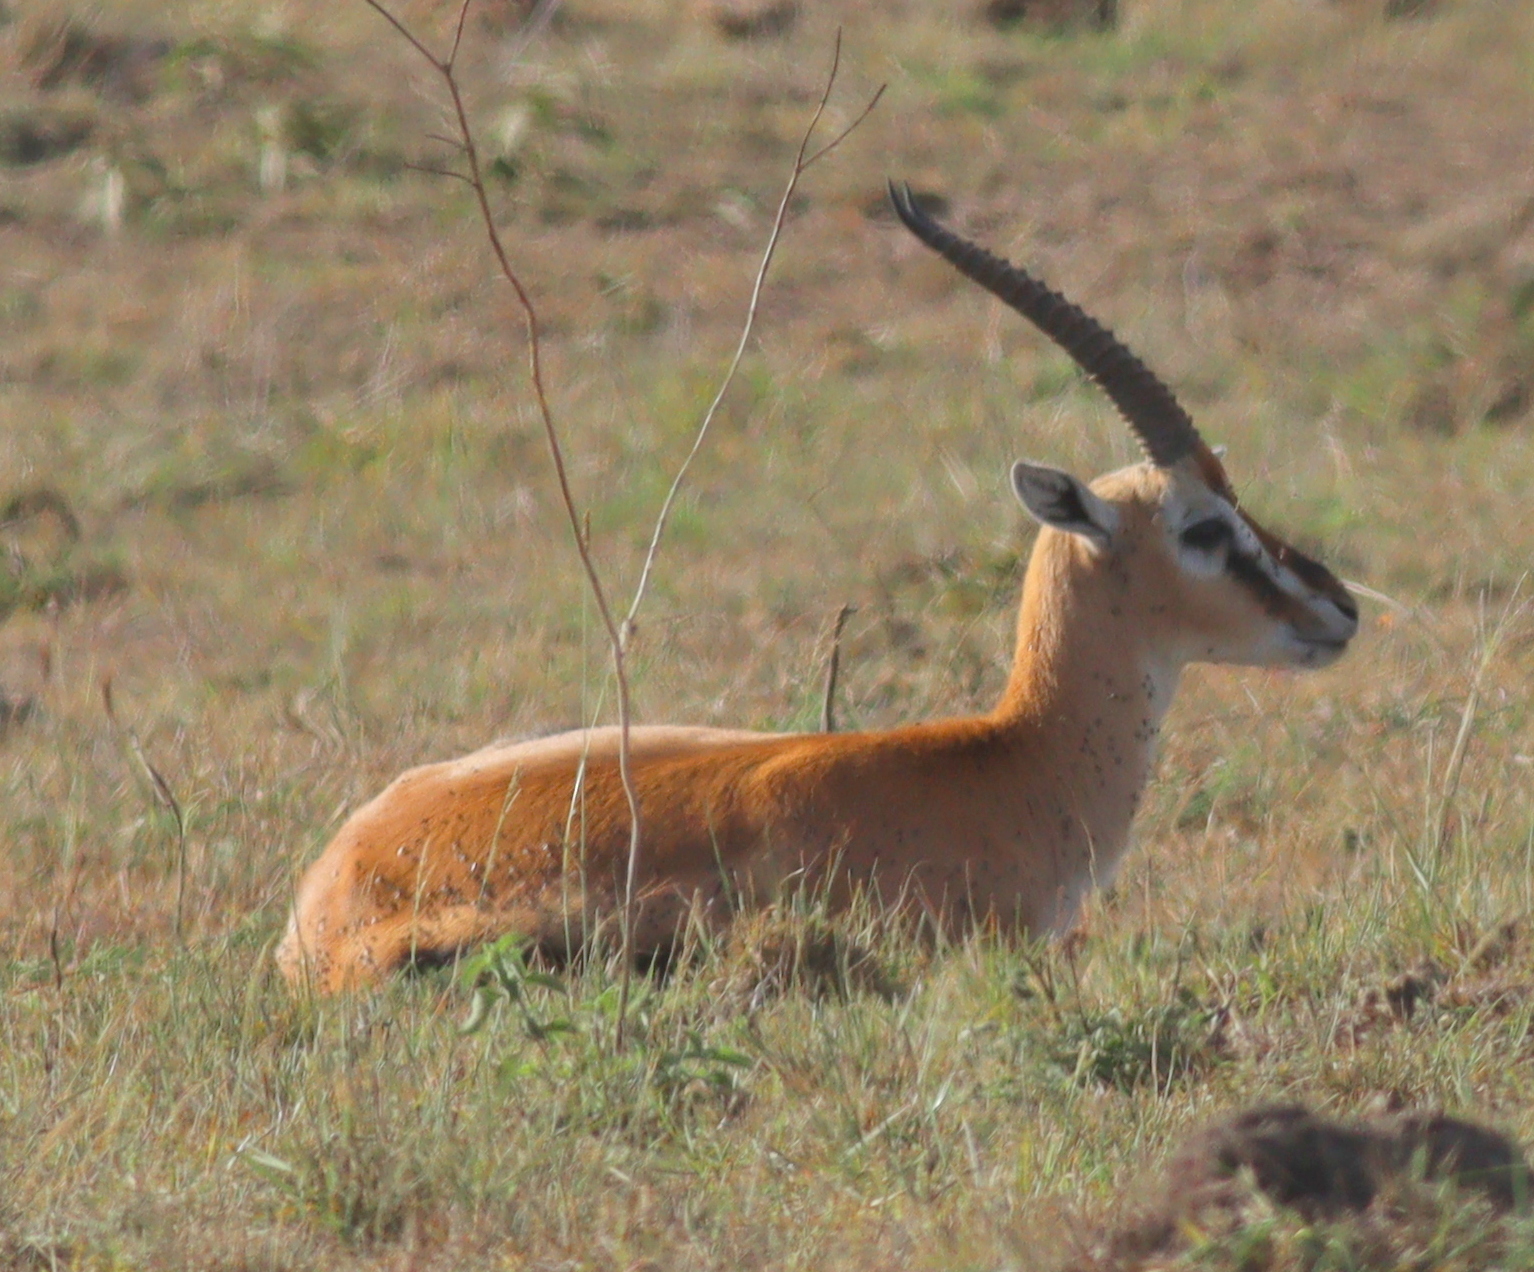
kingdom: Animalia
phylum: Chordata
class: Mammalia
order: Artiodactyla
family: Bovidae
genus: Eudorcas
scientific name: Eudorcas thomsonii
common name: Thomson's gazelle
